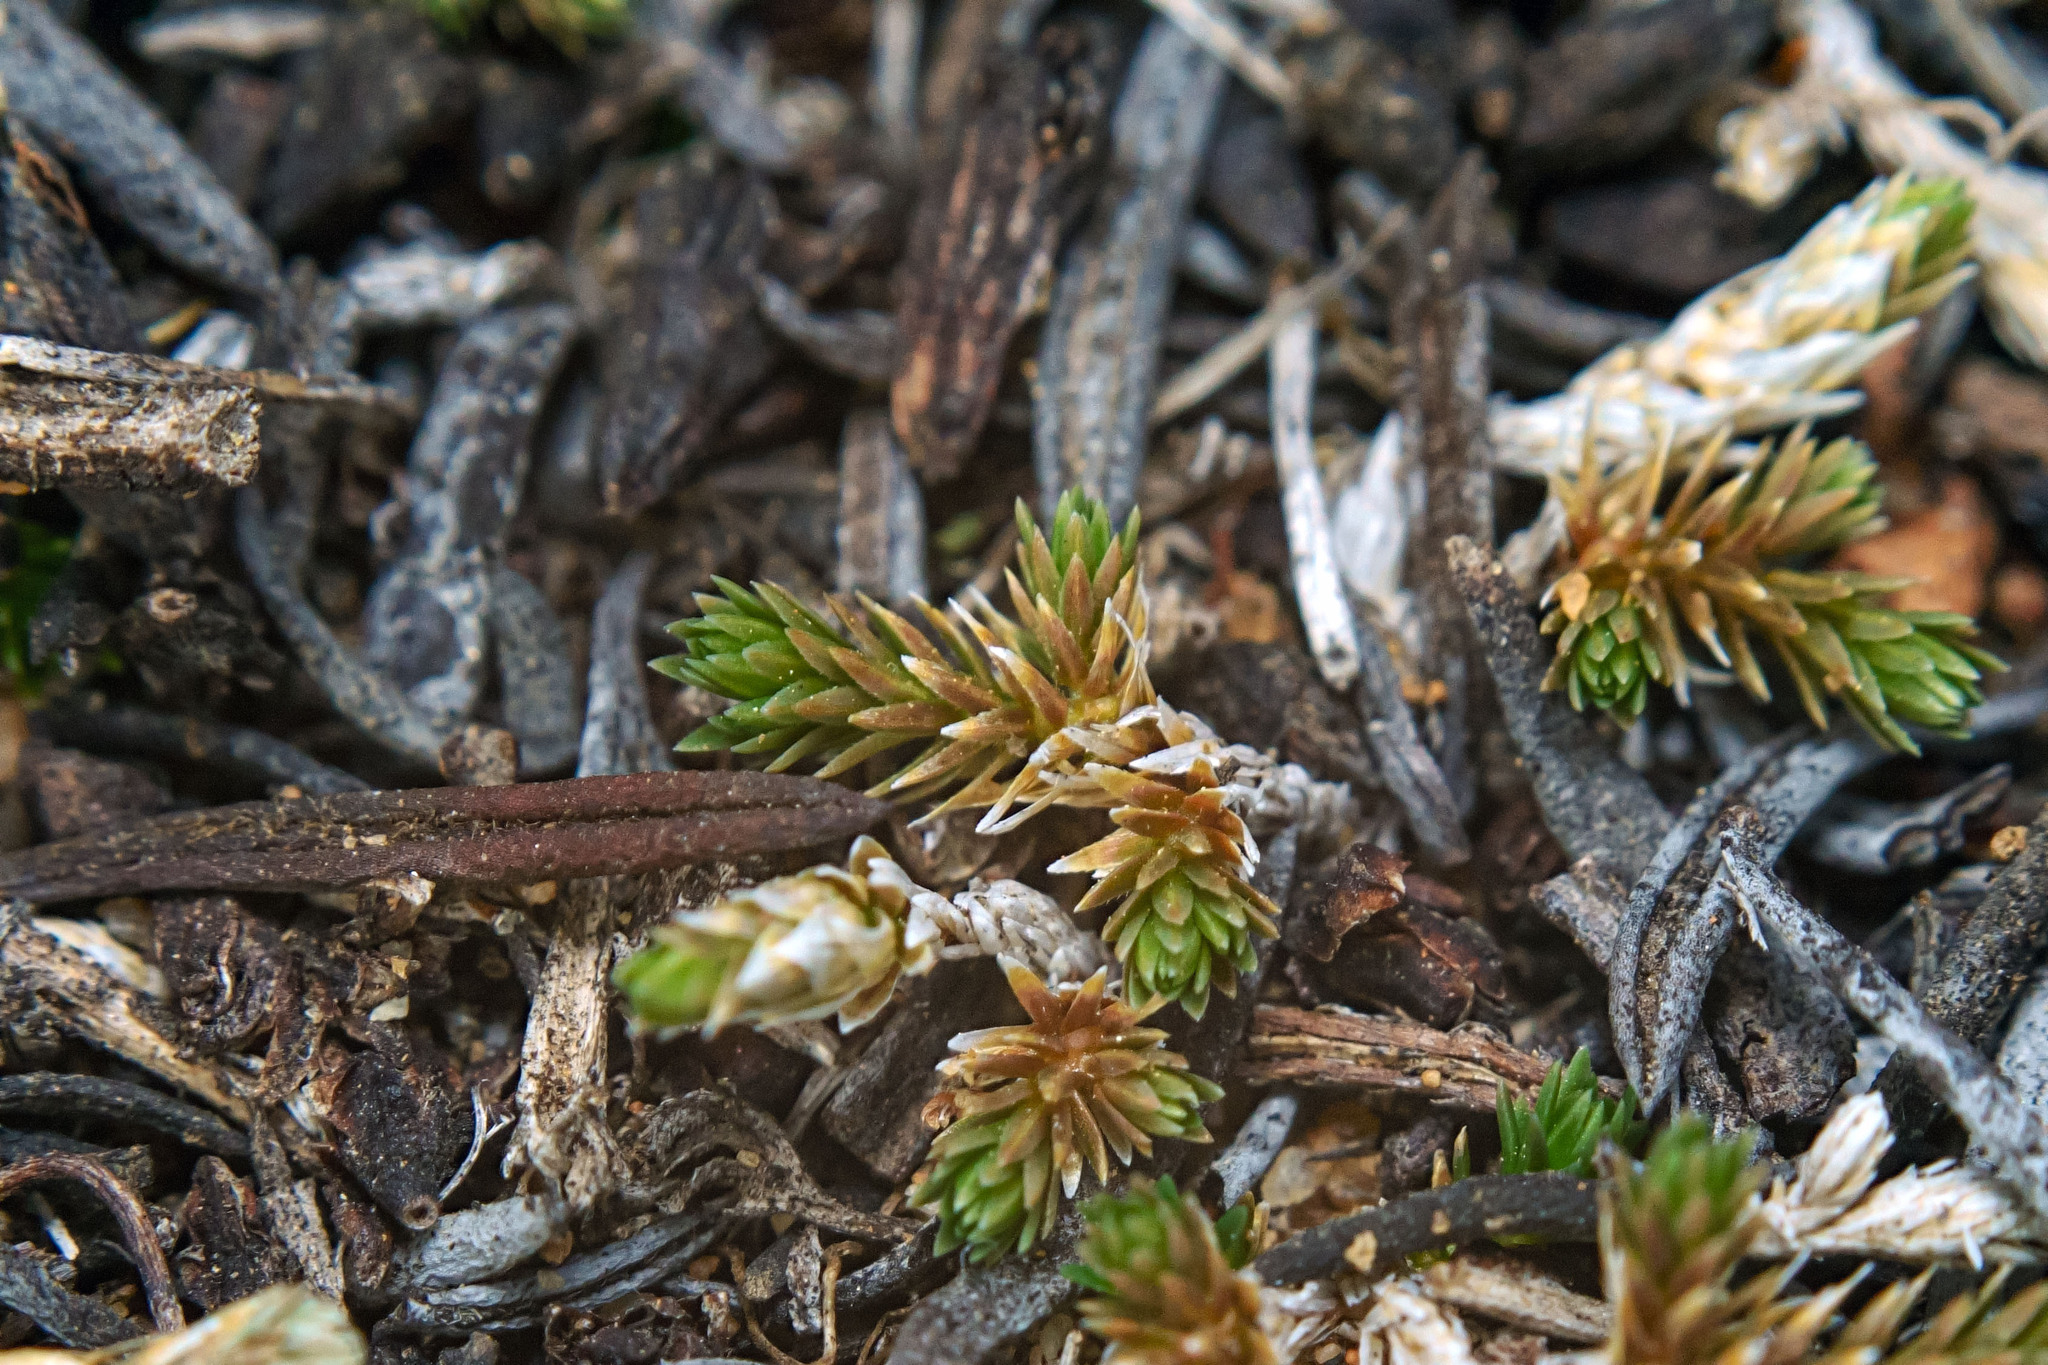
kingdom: Plantae
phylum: Tracheophyta
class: Lycopodiopsida
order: Selaginellales
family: Selaginellaceae
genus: Selaginella
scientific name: Selaginella cinerascens
